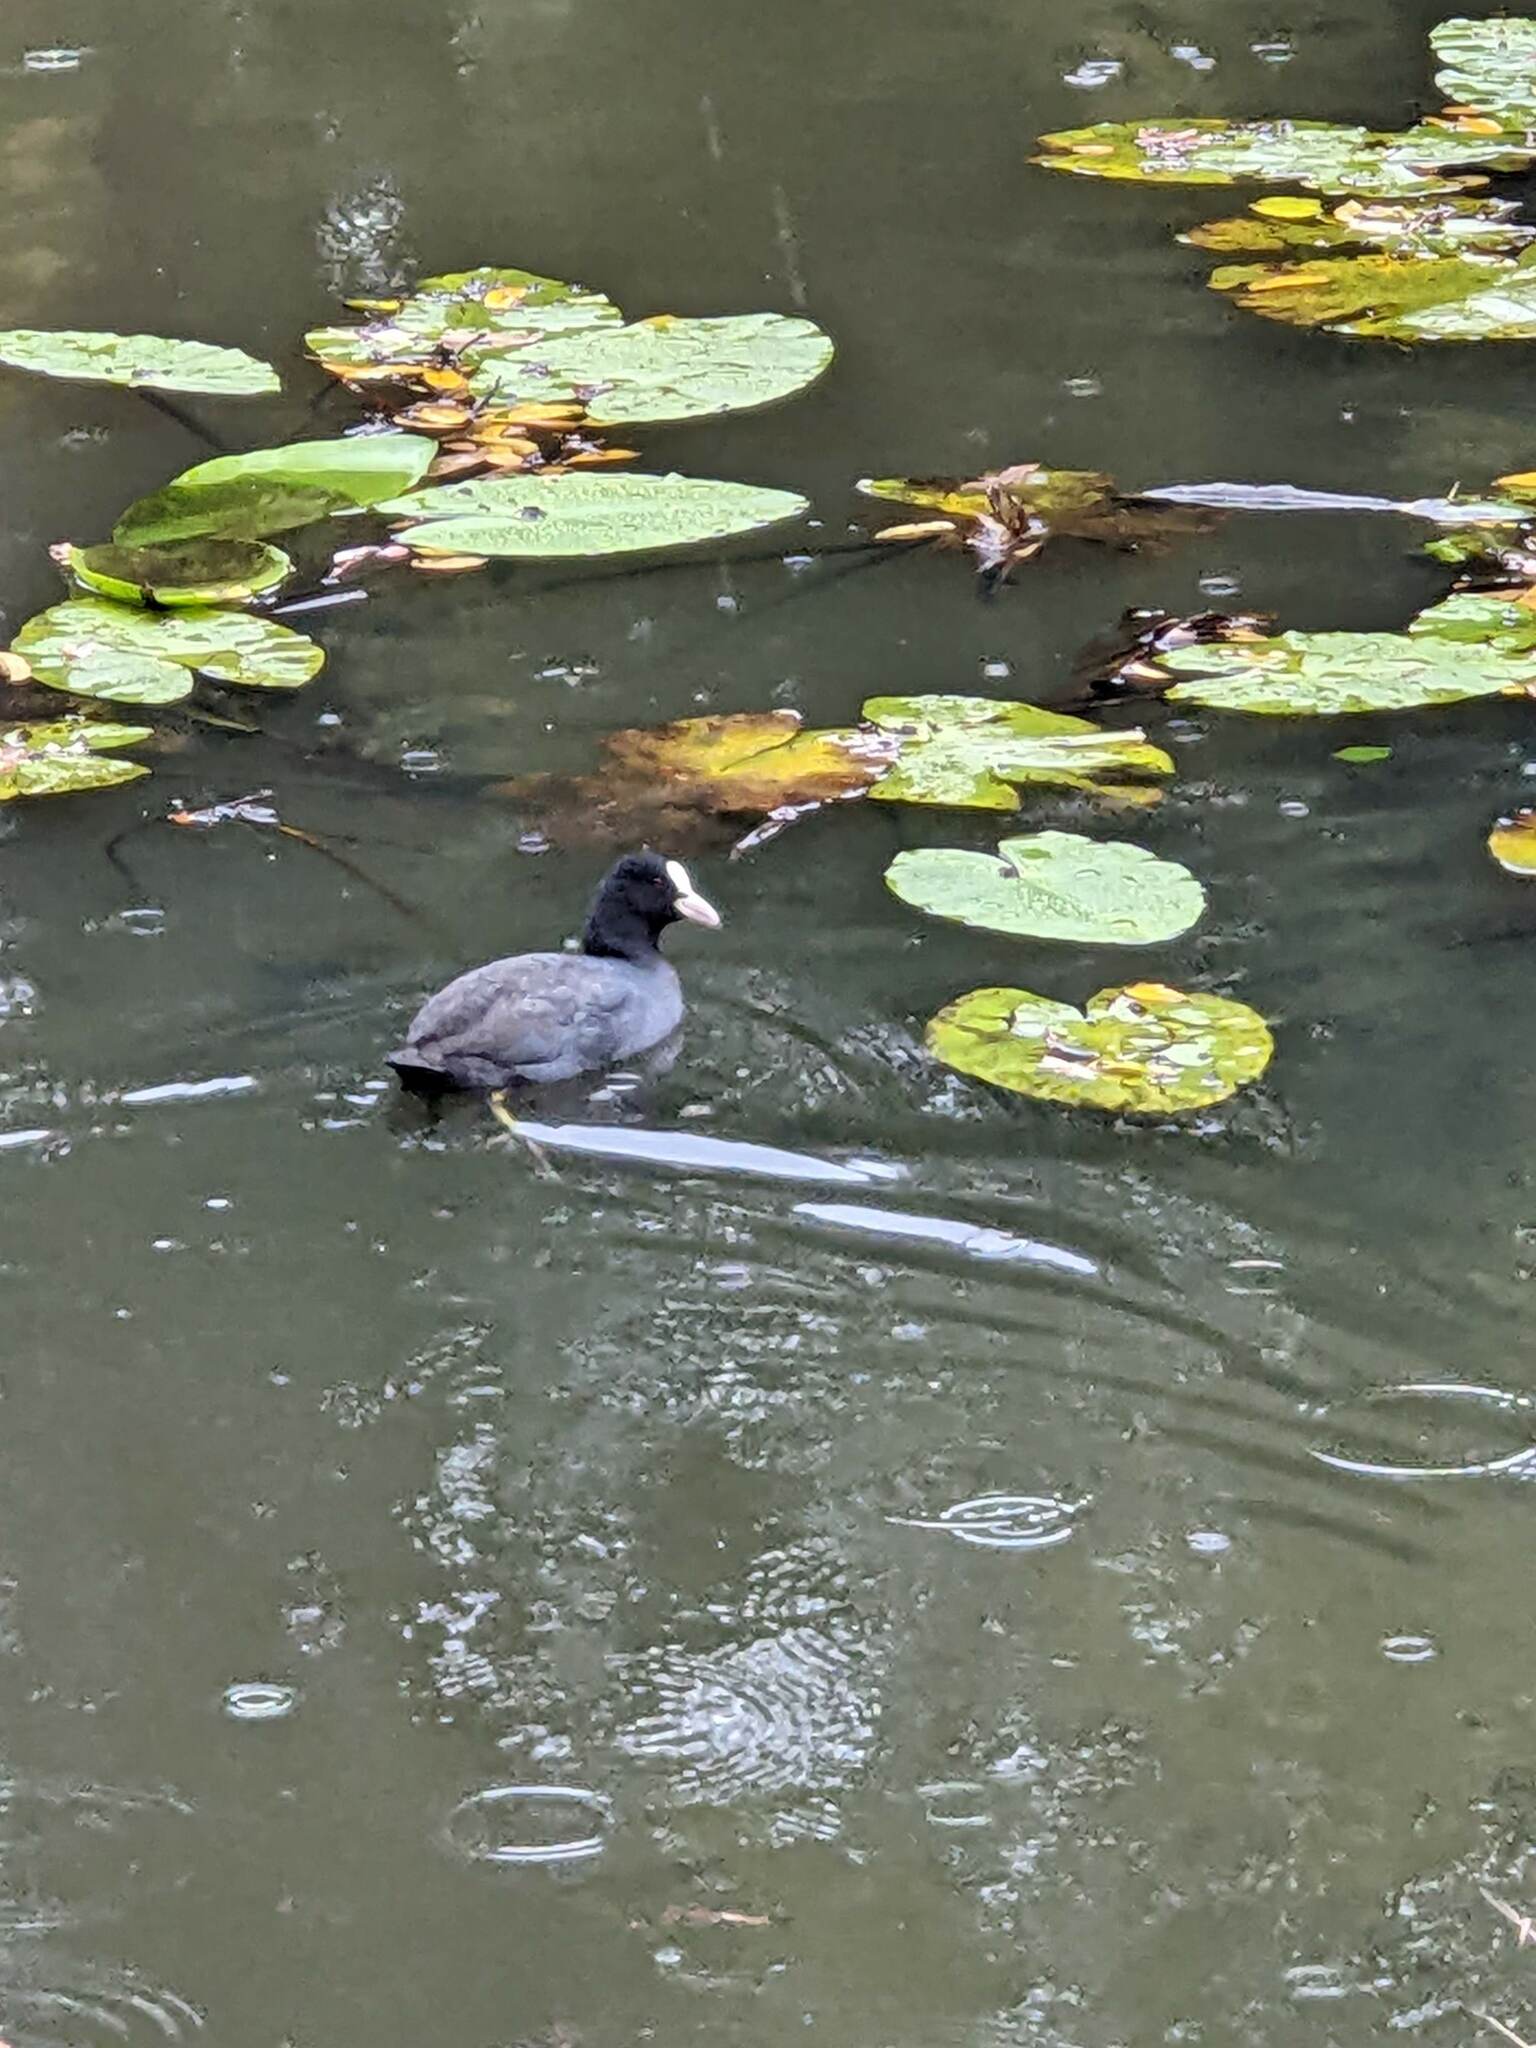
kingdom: Animalia
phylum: Chordata
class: Aves
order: Gruiformes
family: Rallidae
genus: Fulica
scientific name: Fulica atra
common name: Eurasian coot
